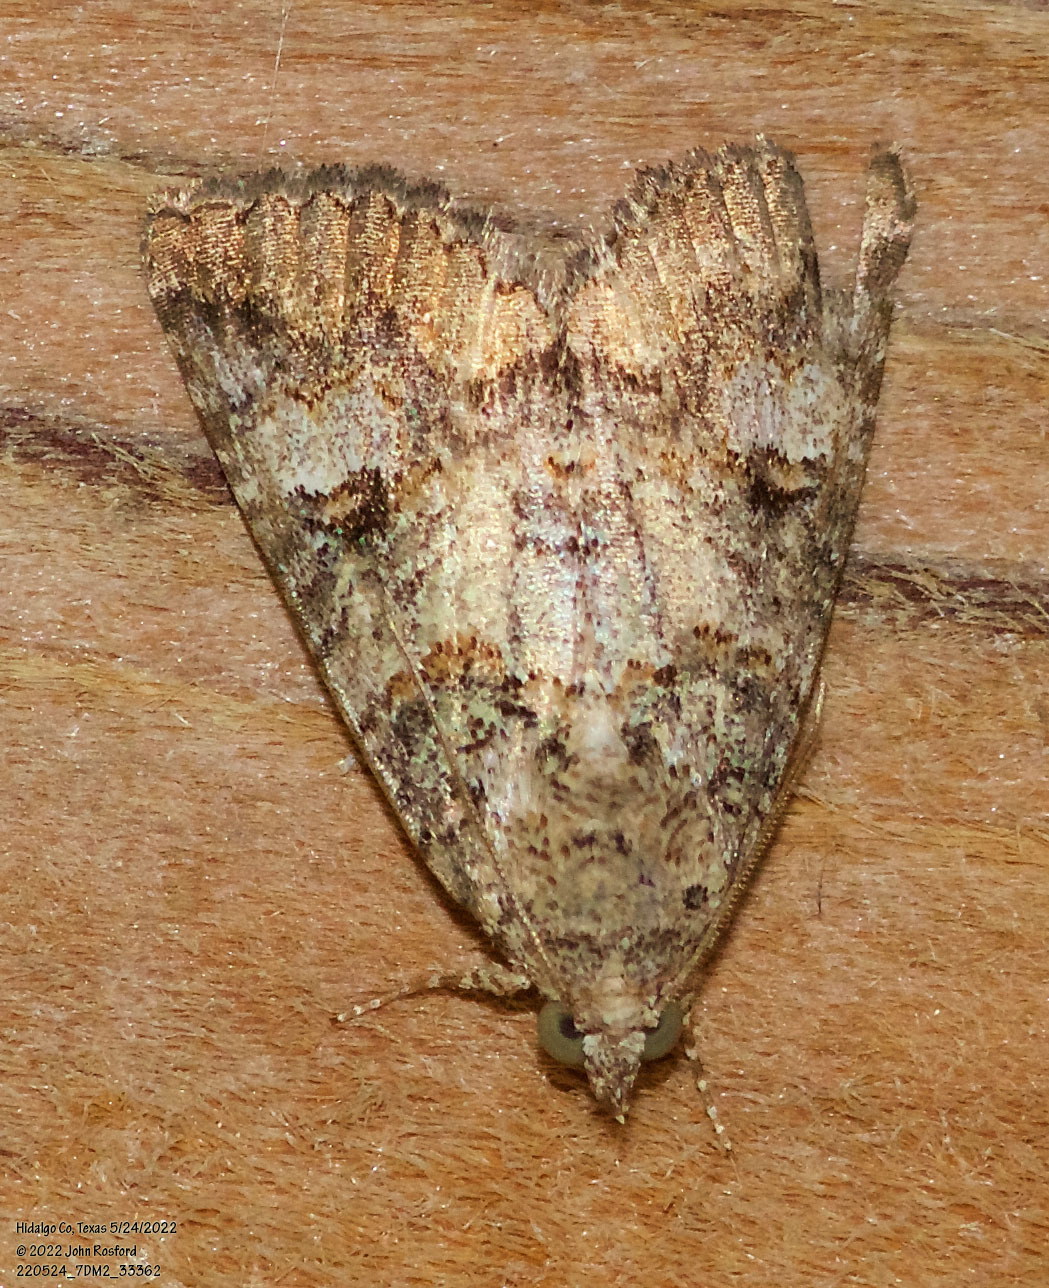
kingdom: Animalia
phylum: Arthropoda
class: Insecta
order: Lepidoptera
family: Erebidae
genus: Eubolina
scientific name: Eubolina impartialis
